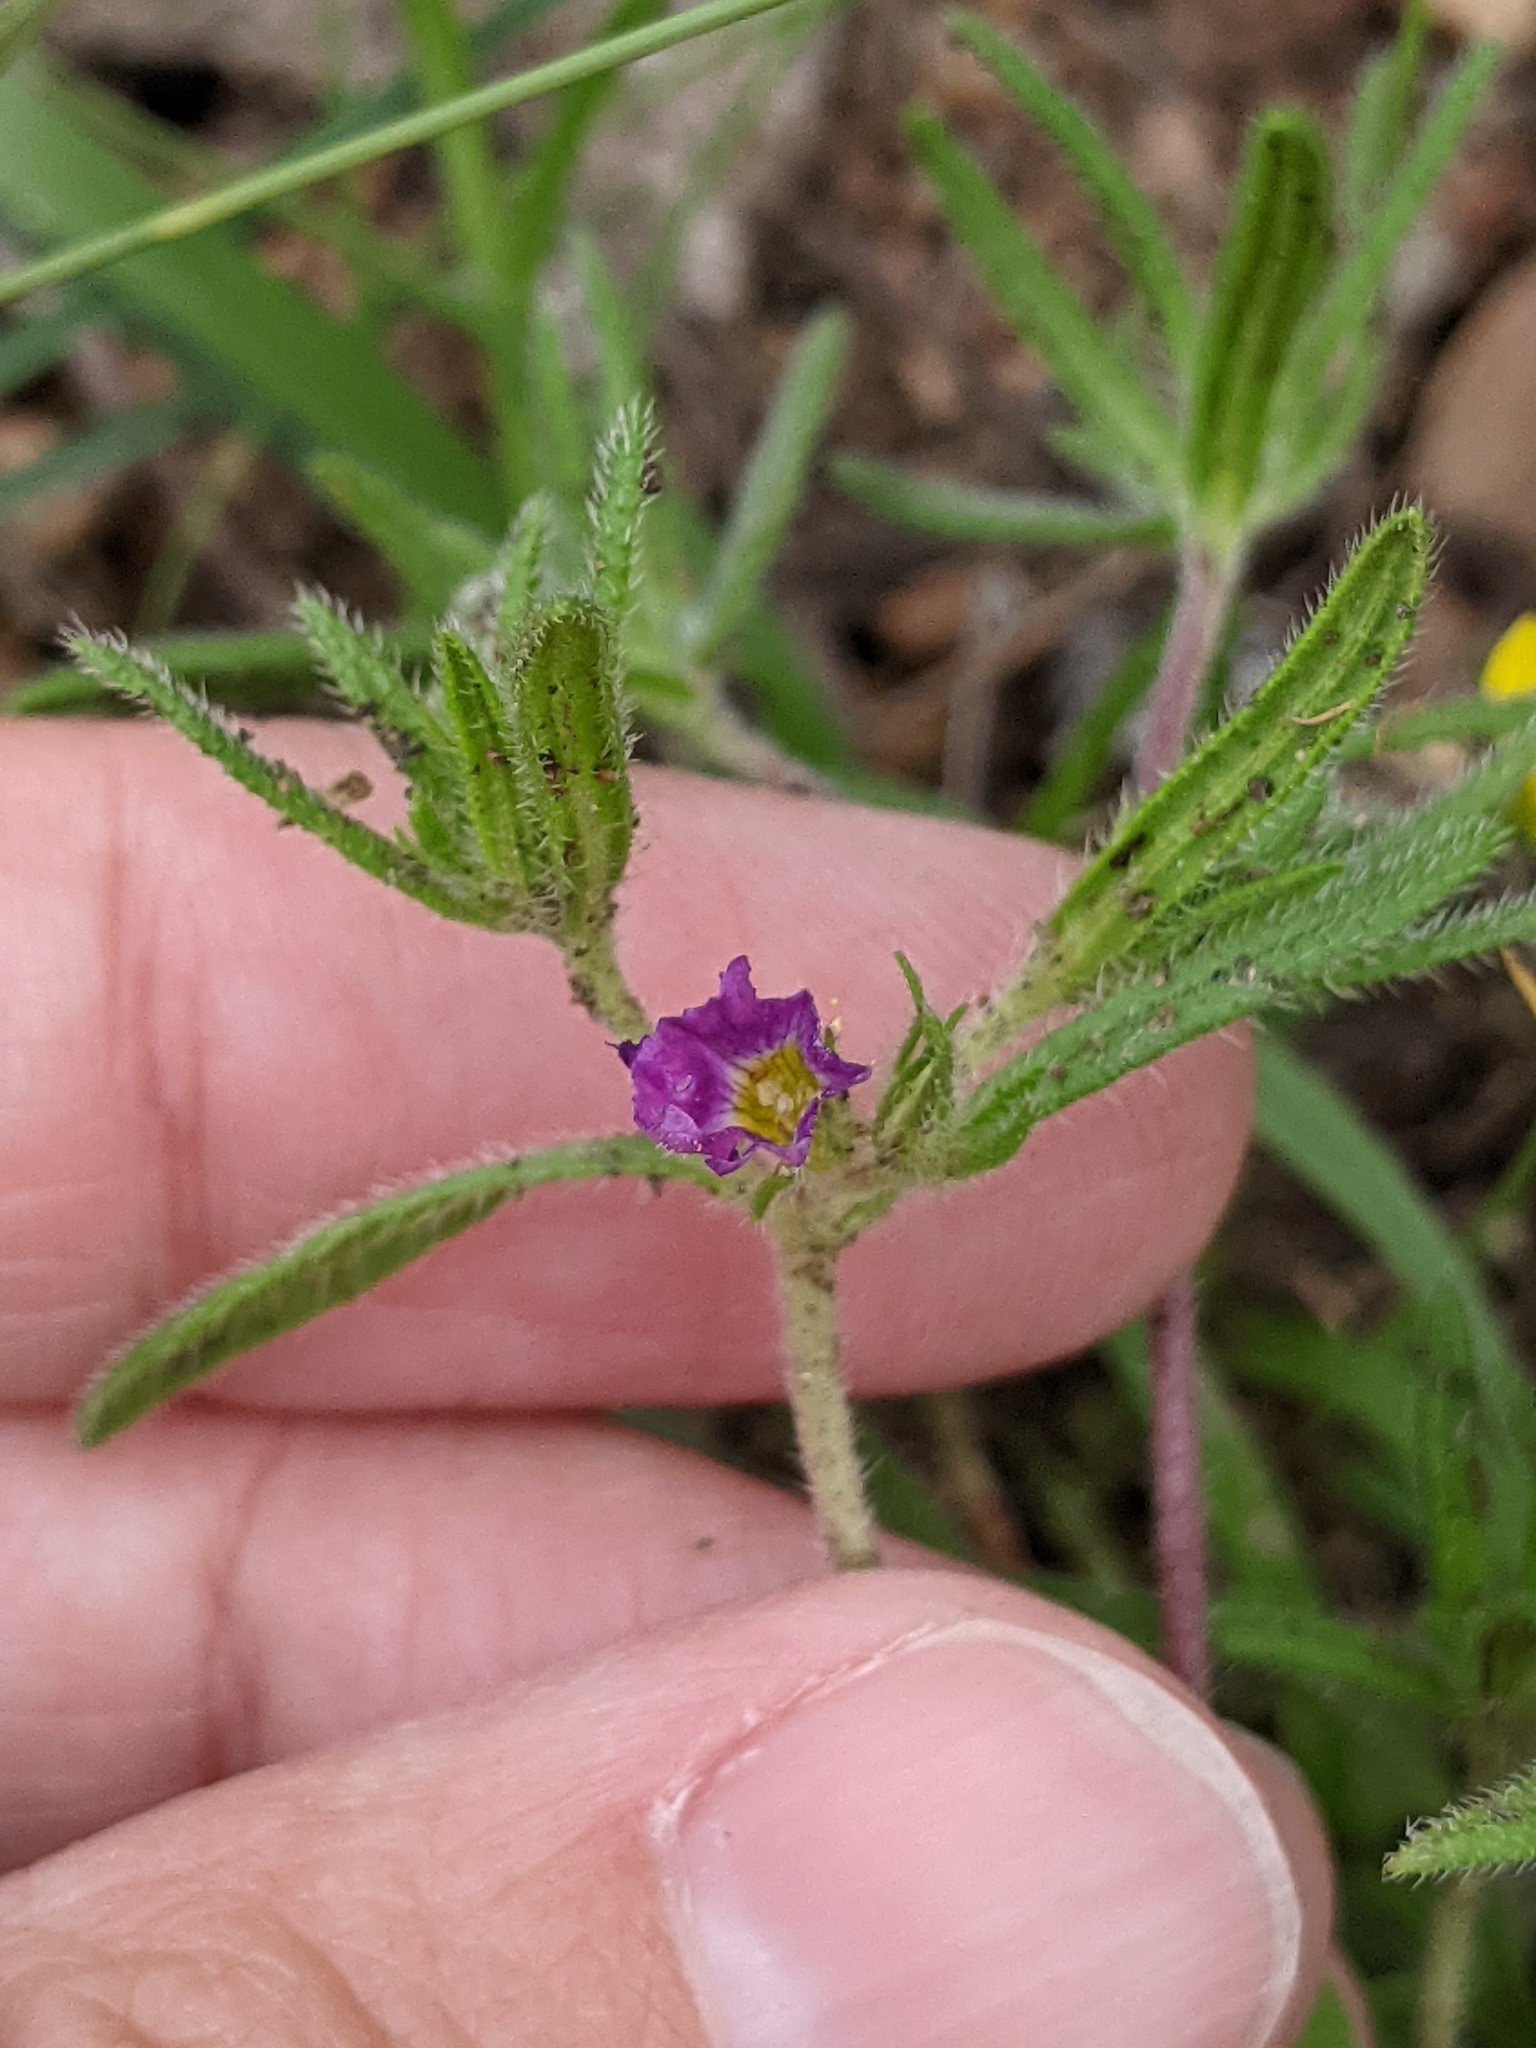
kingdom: Plantae
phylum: Tracheophyta
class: Magnoliopsida
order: Boraginales
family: Namaceae
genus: Nama
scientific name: Nama hispida
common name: Bristly nama
